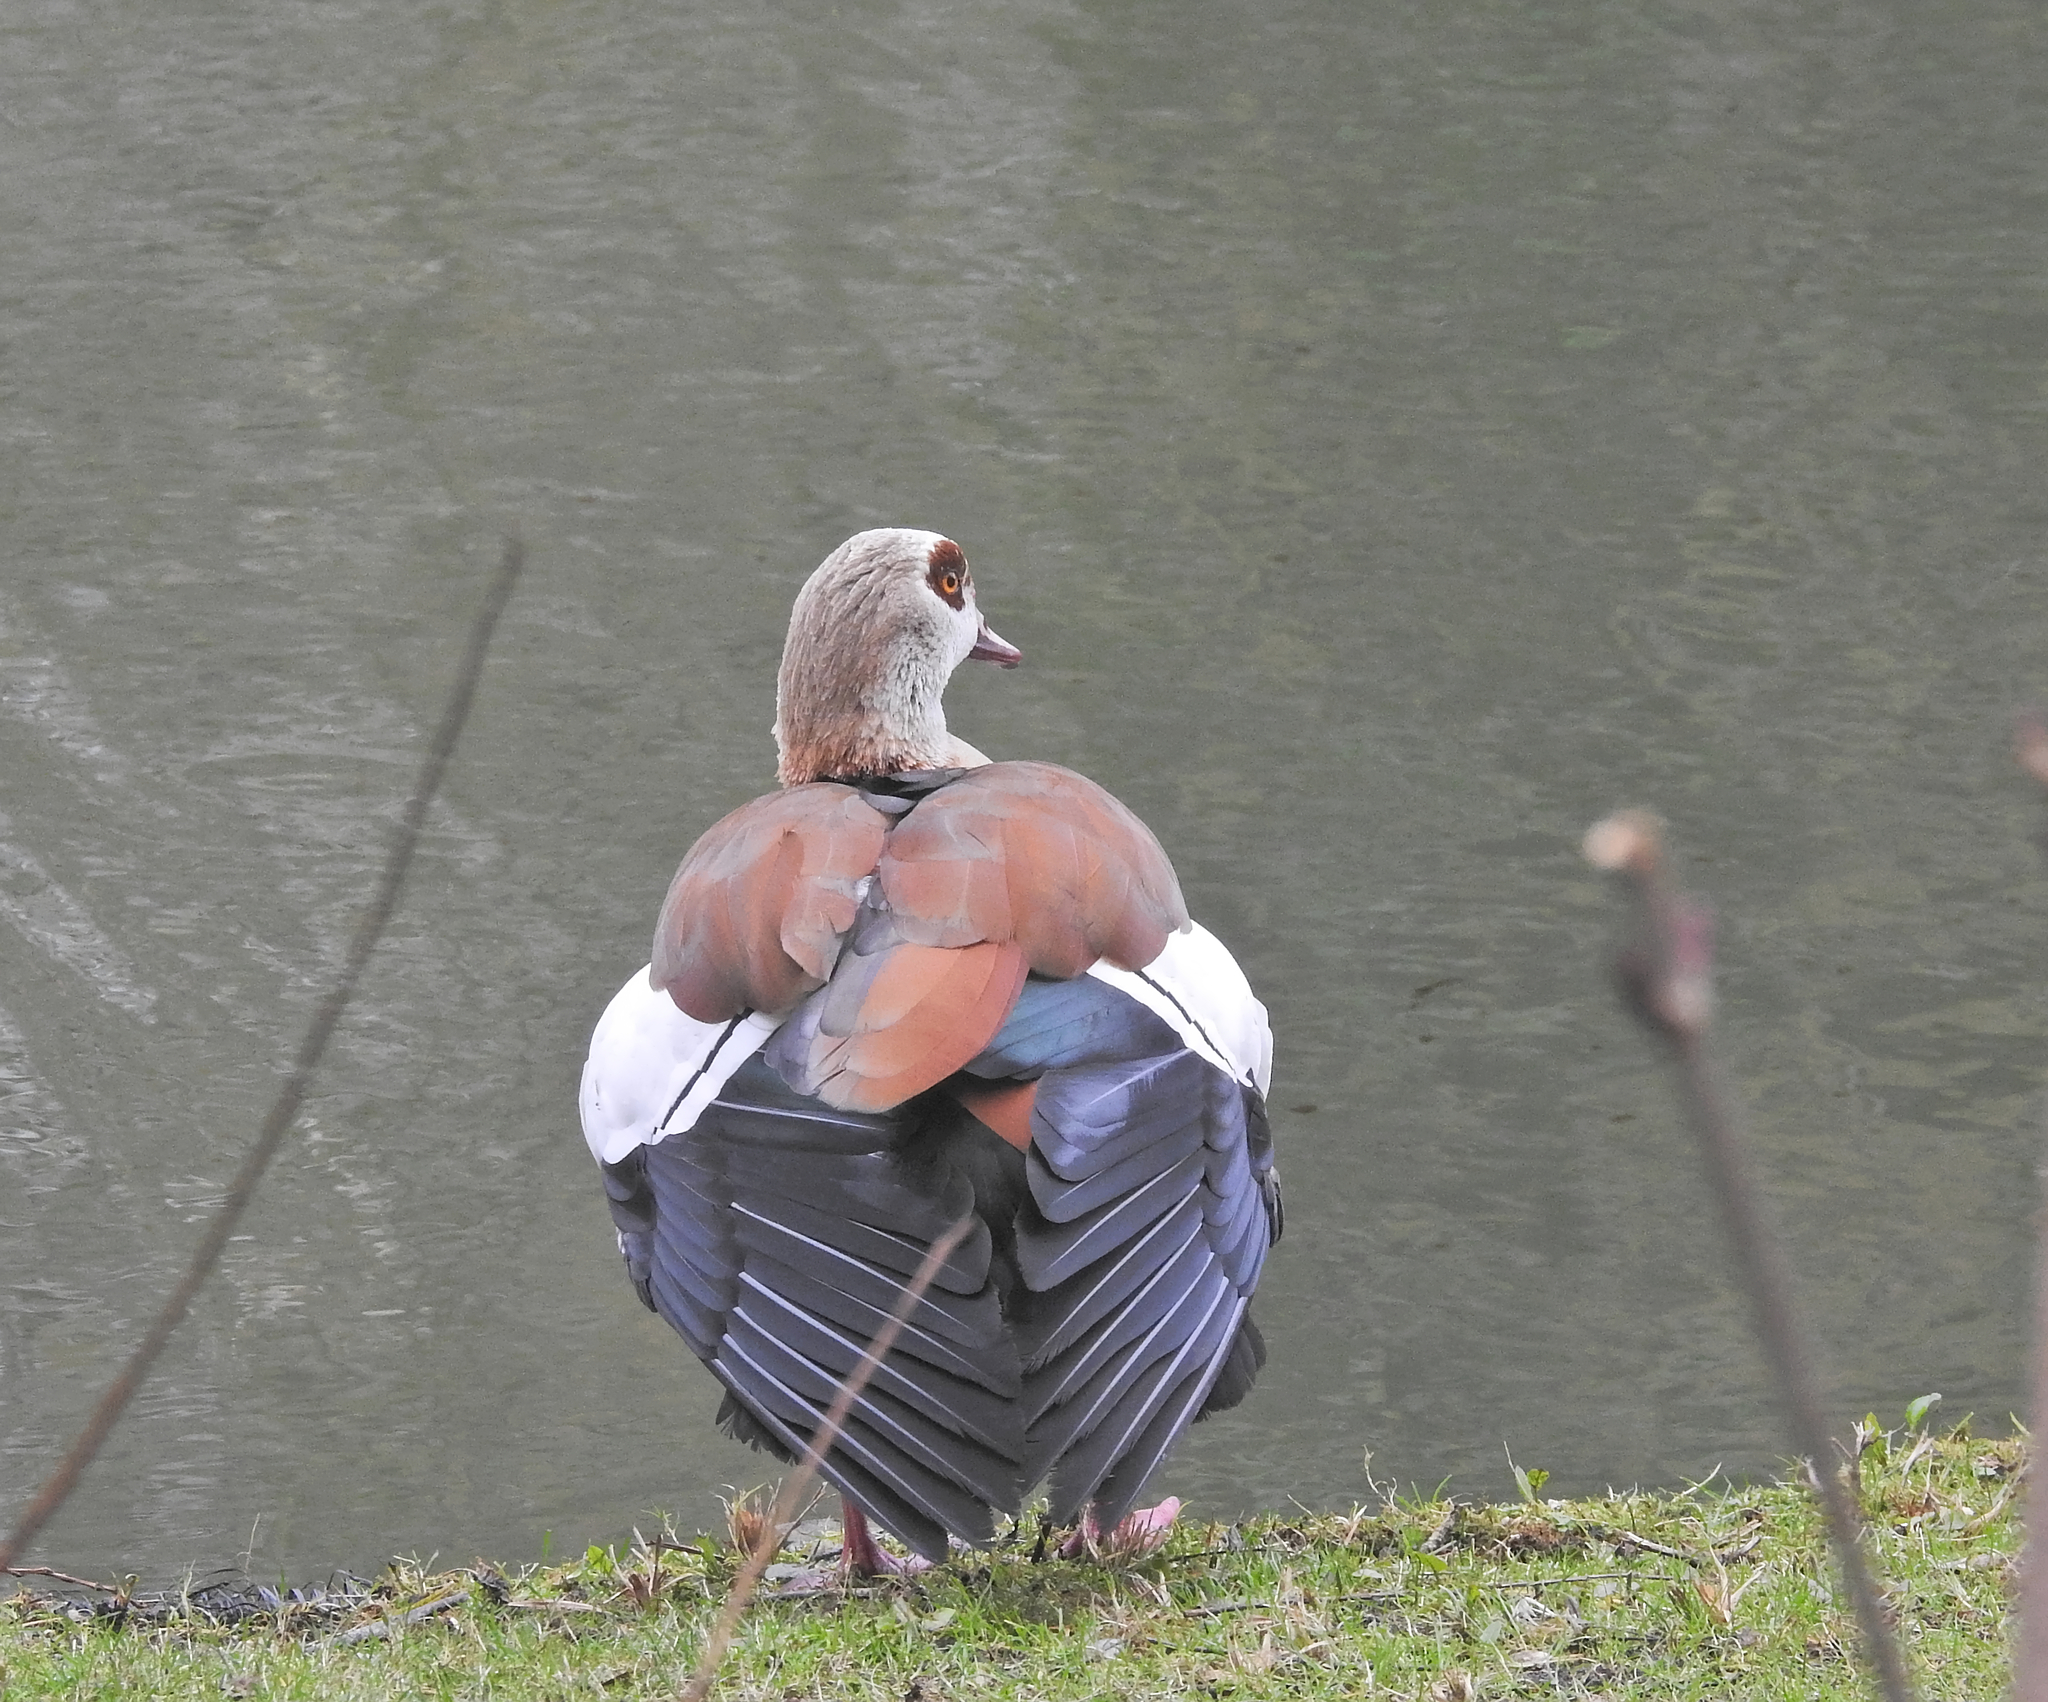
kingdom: Animalia
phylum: Chordata
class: Aves
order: Anseriformes
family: Anatidae
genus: Alopochen
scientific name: Alopochen aegyptiaca
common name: Egyptian goose
